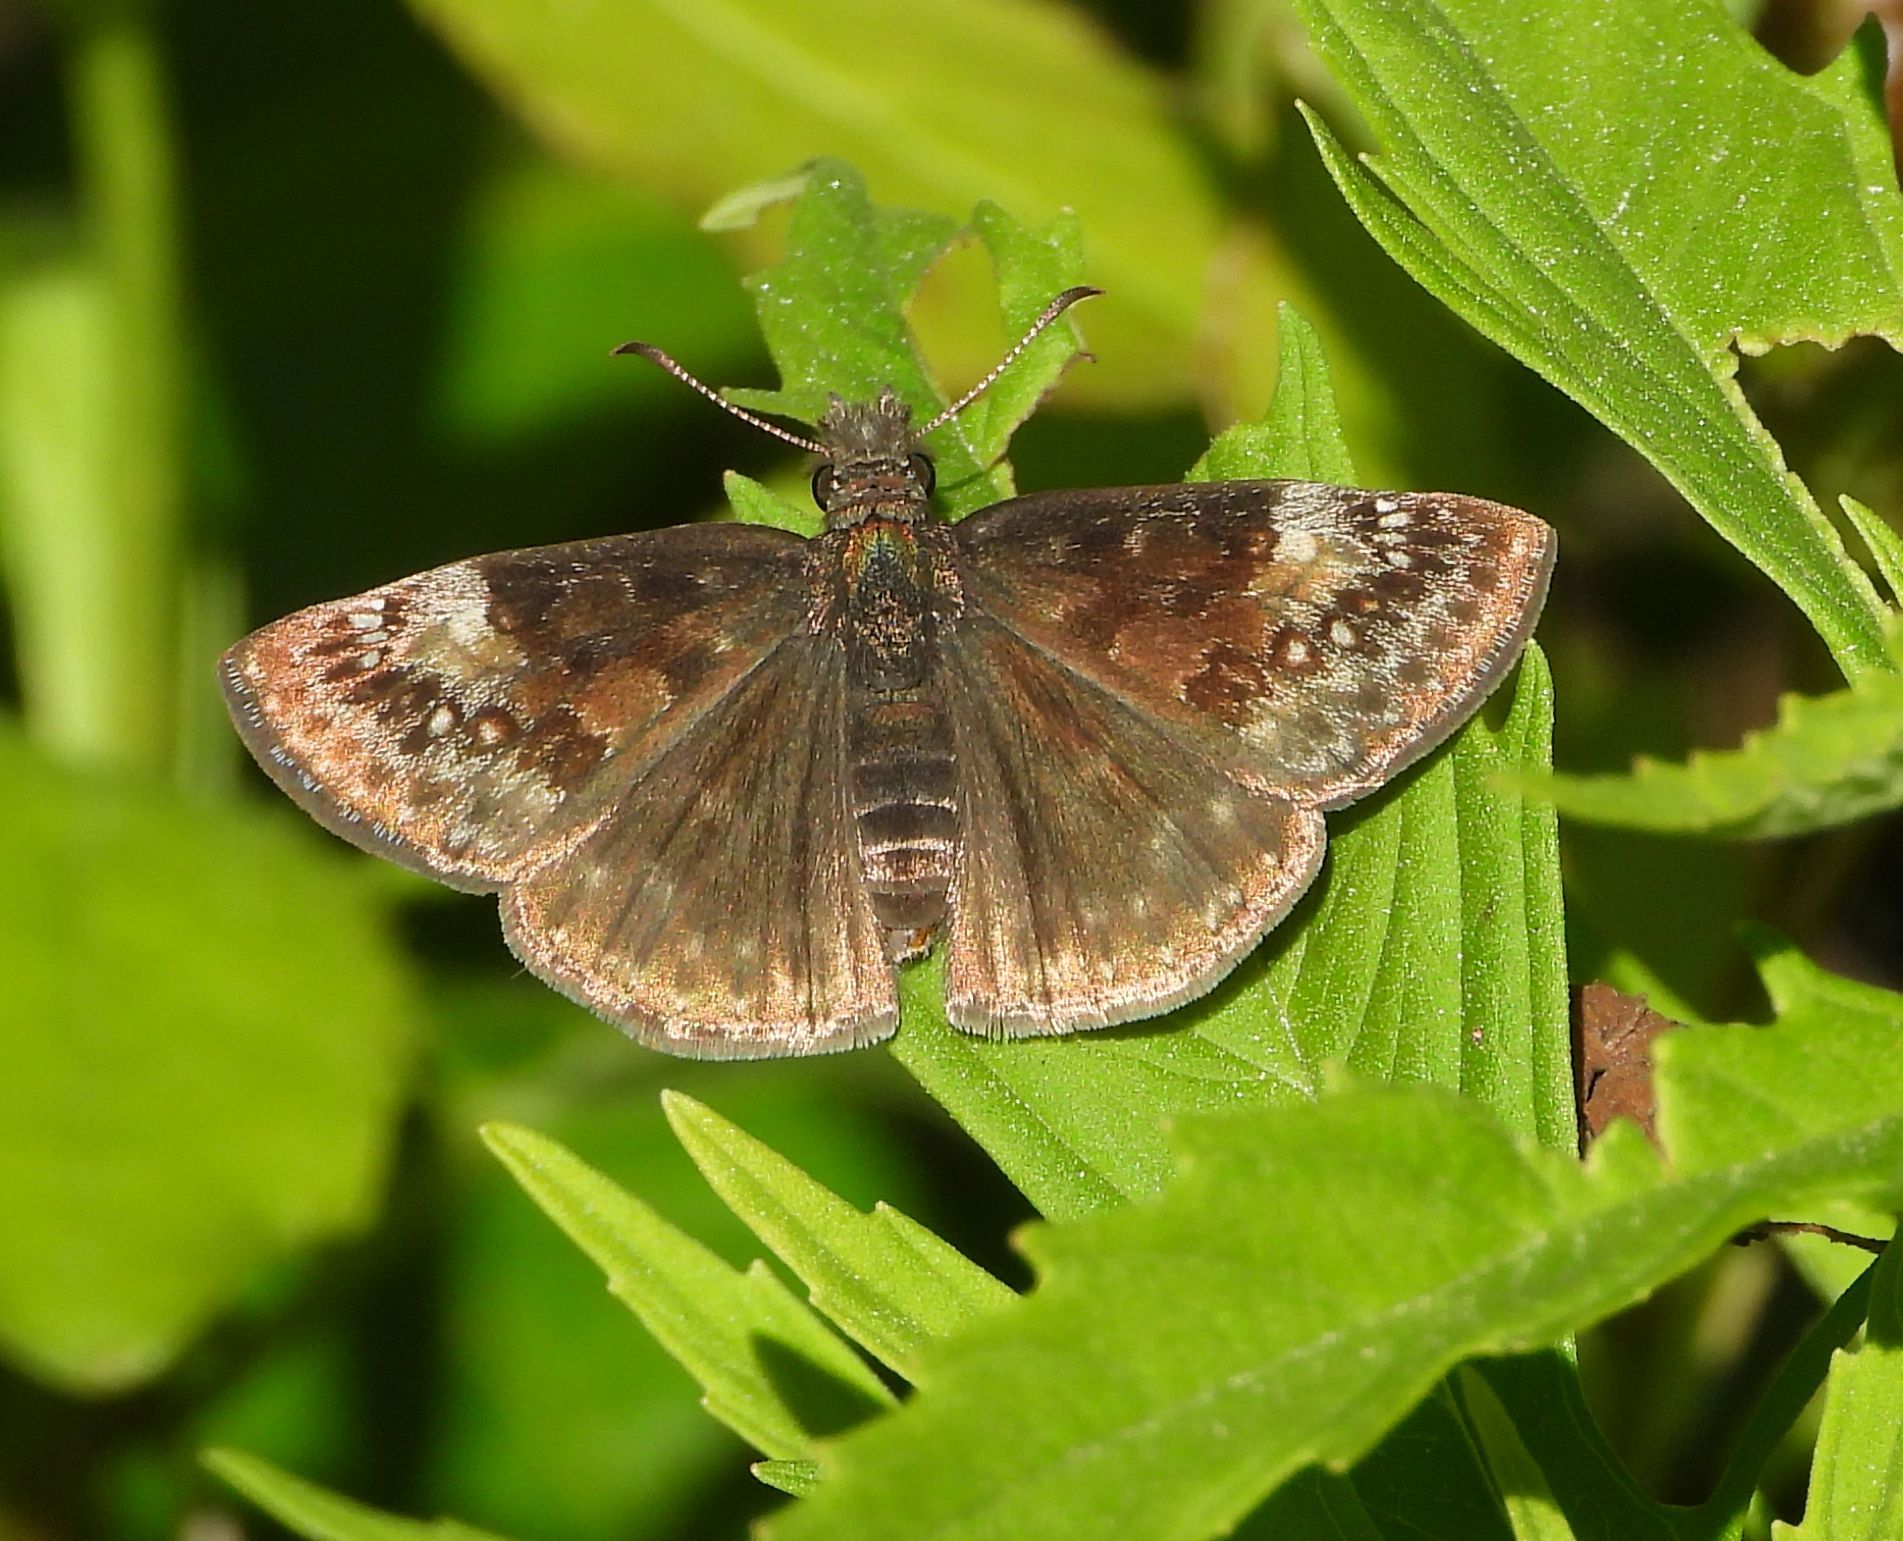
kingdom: Animalia
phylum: Arthropoda
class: Insecta
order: Lepidoptera
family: Hesperiidae
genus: Erynnis
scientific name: Erynnis lucilius
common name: Columbine duskywing
